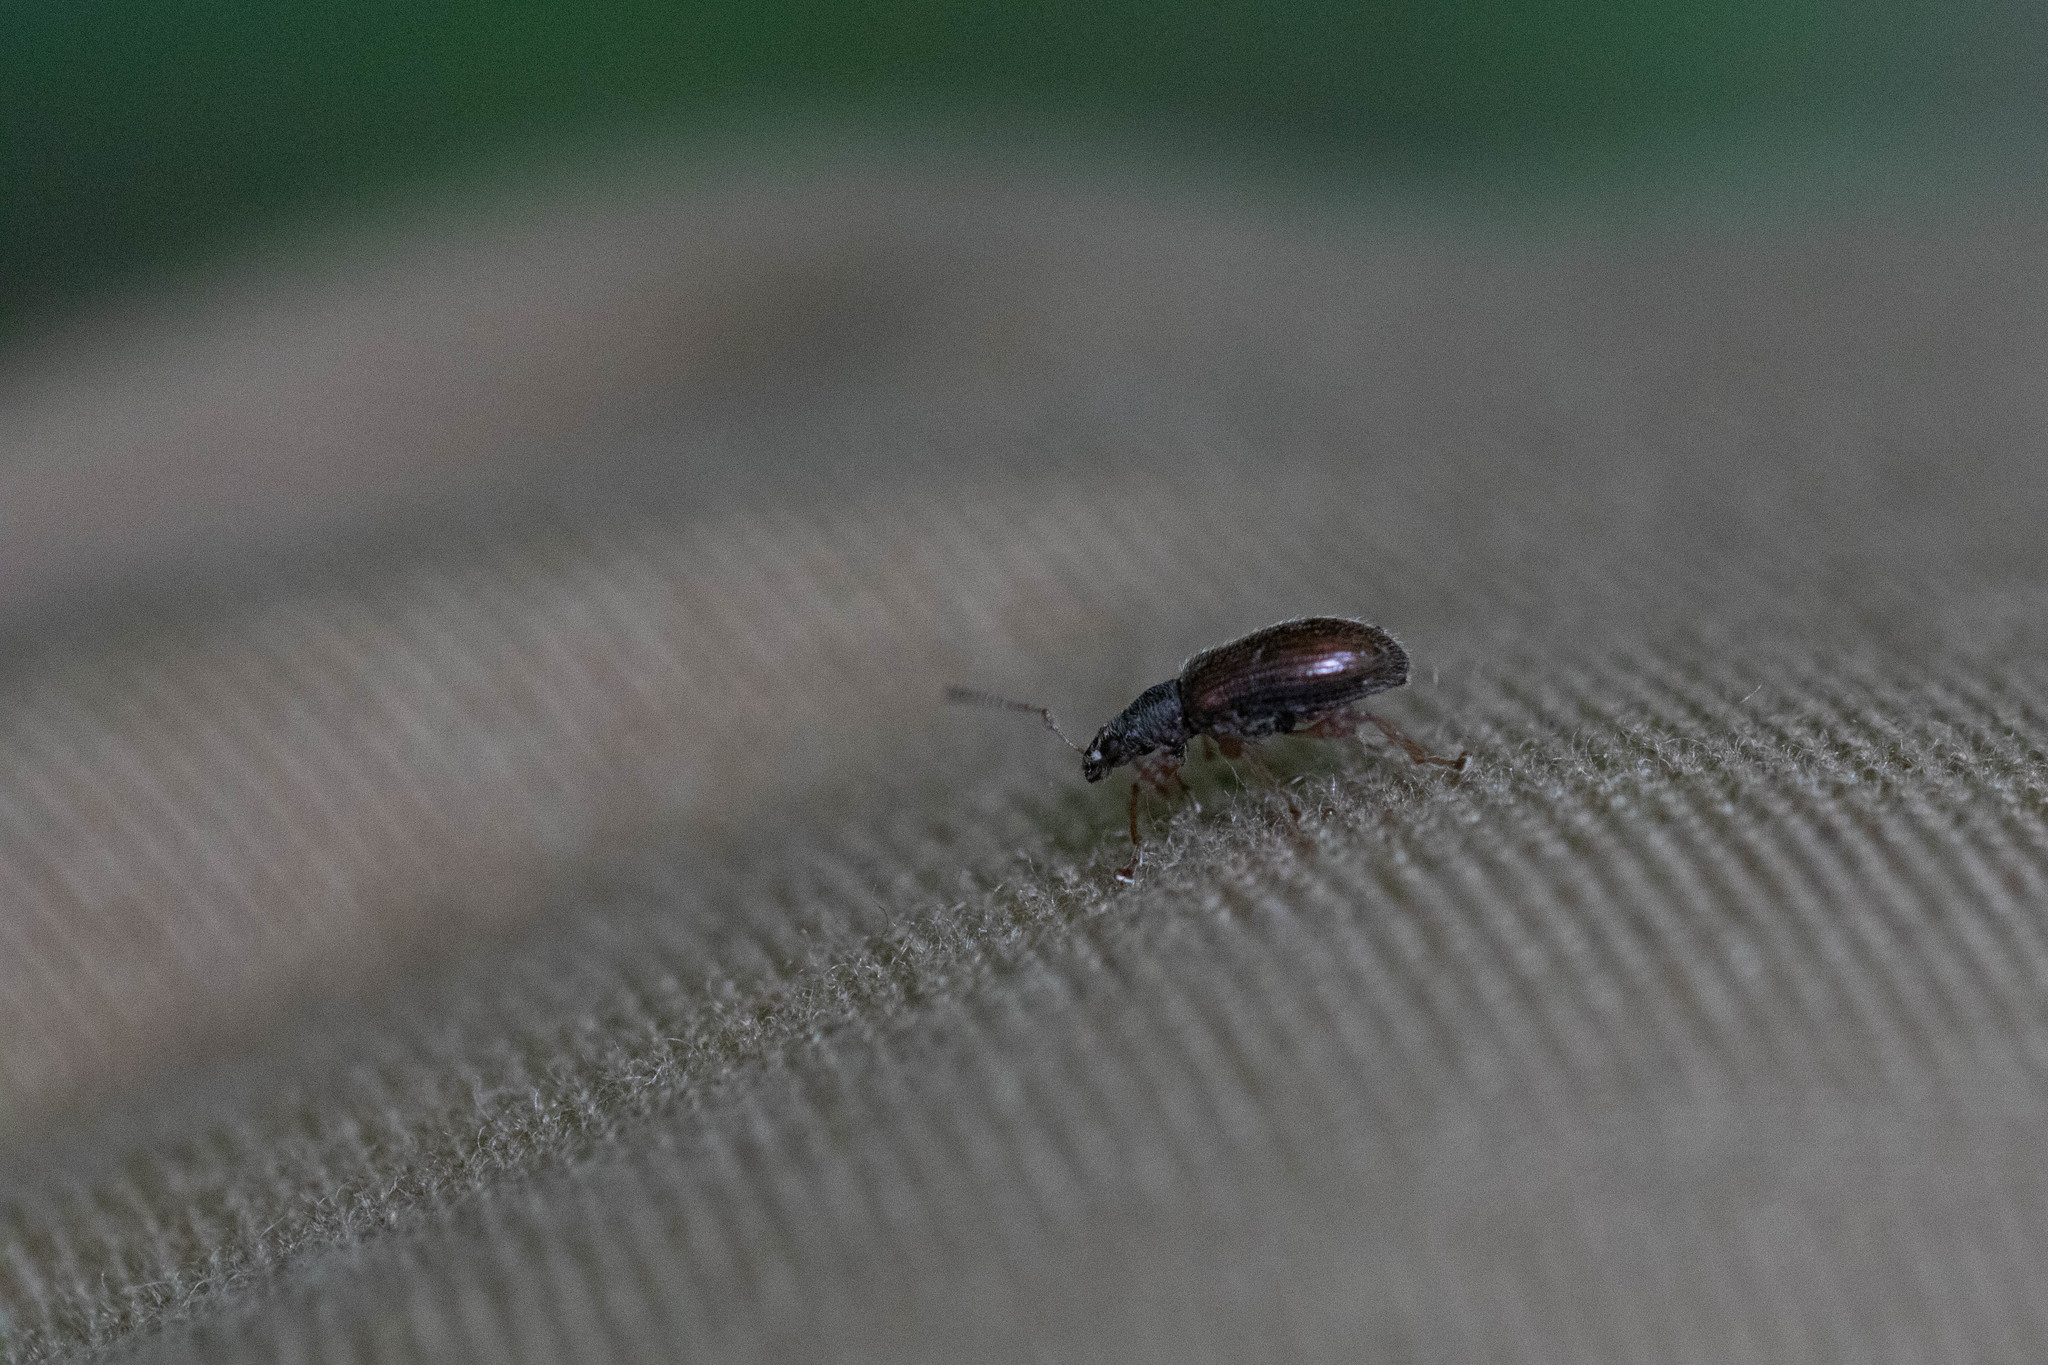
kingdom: Animalia
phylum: Arthropoda
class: Insecta
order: Coleoptera
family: Curculionidae
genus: Phyllobius
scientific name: Phyllobius oblongus
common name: Brown leaf weevil
